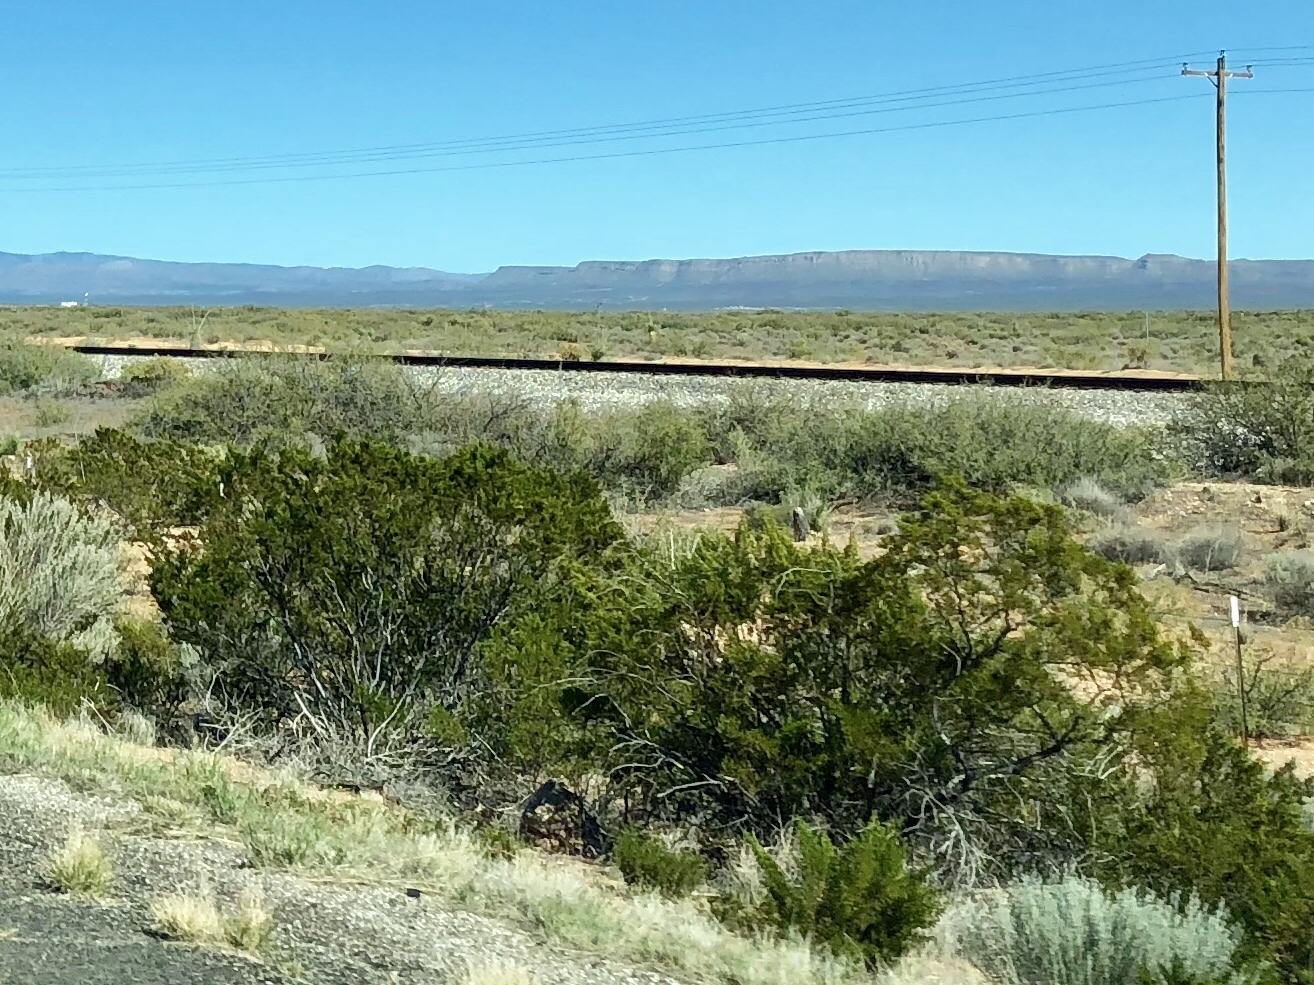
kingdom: Plantae
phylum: Tracheophyta
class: Magnoliopsida
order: Zygophyllales
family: Zygophyllaceae
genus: Larrea
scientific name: Larrea tridentata
